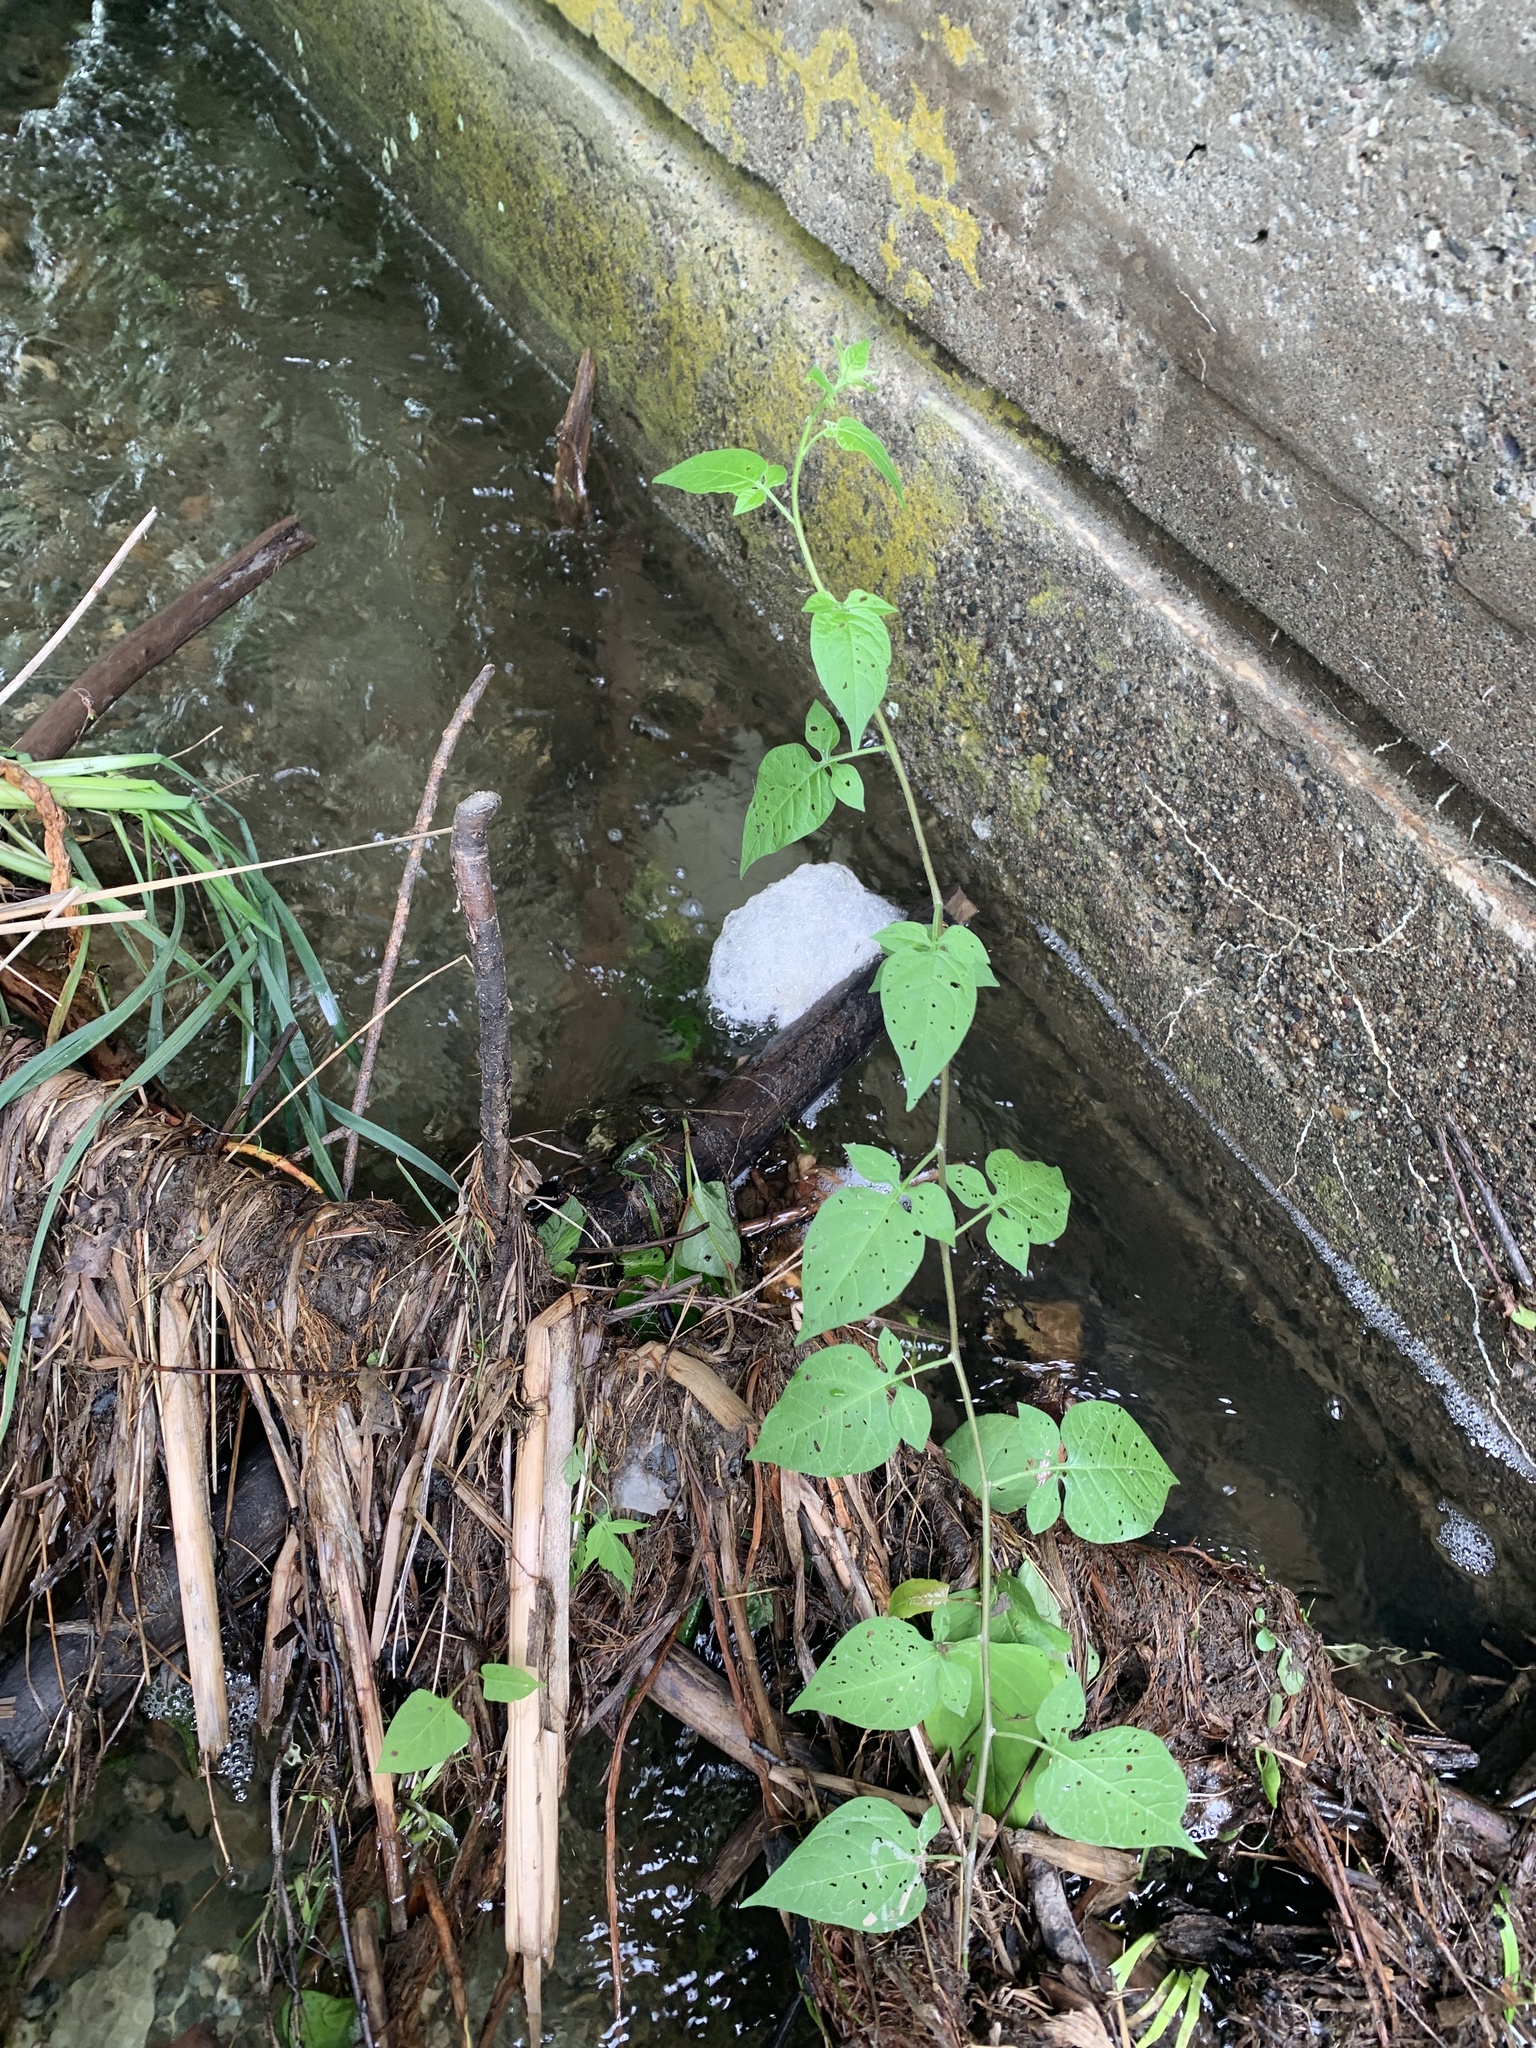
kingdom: Plantae
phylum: Tracheophyta
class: Magnoliopsida
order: Solanales
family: Solanaceae
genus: Solanum
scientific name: Solanum dulcamara
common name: Climbing nightshade
